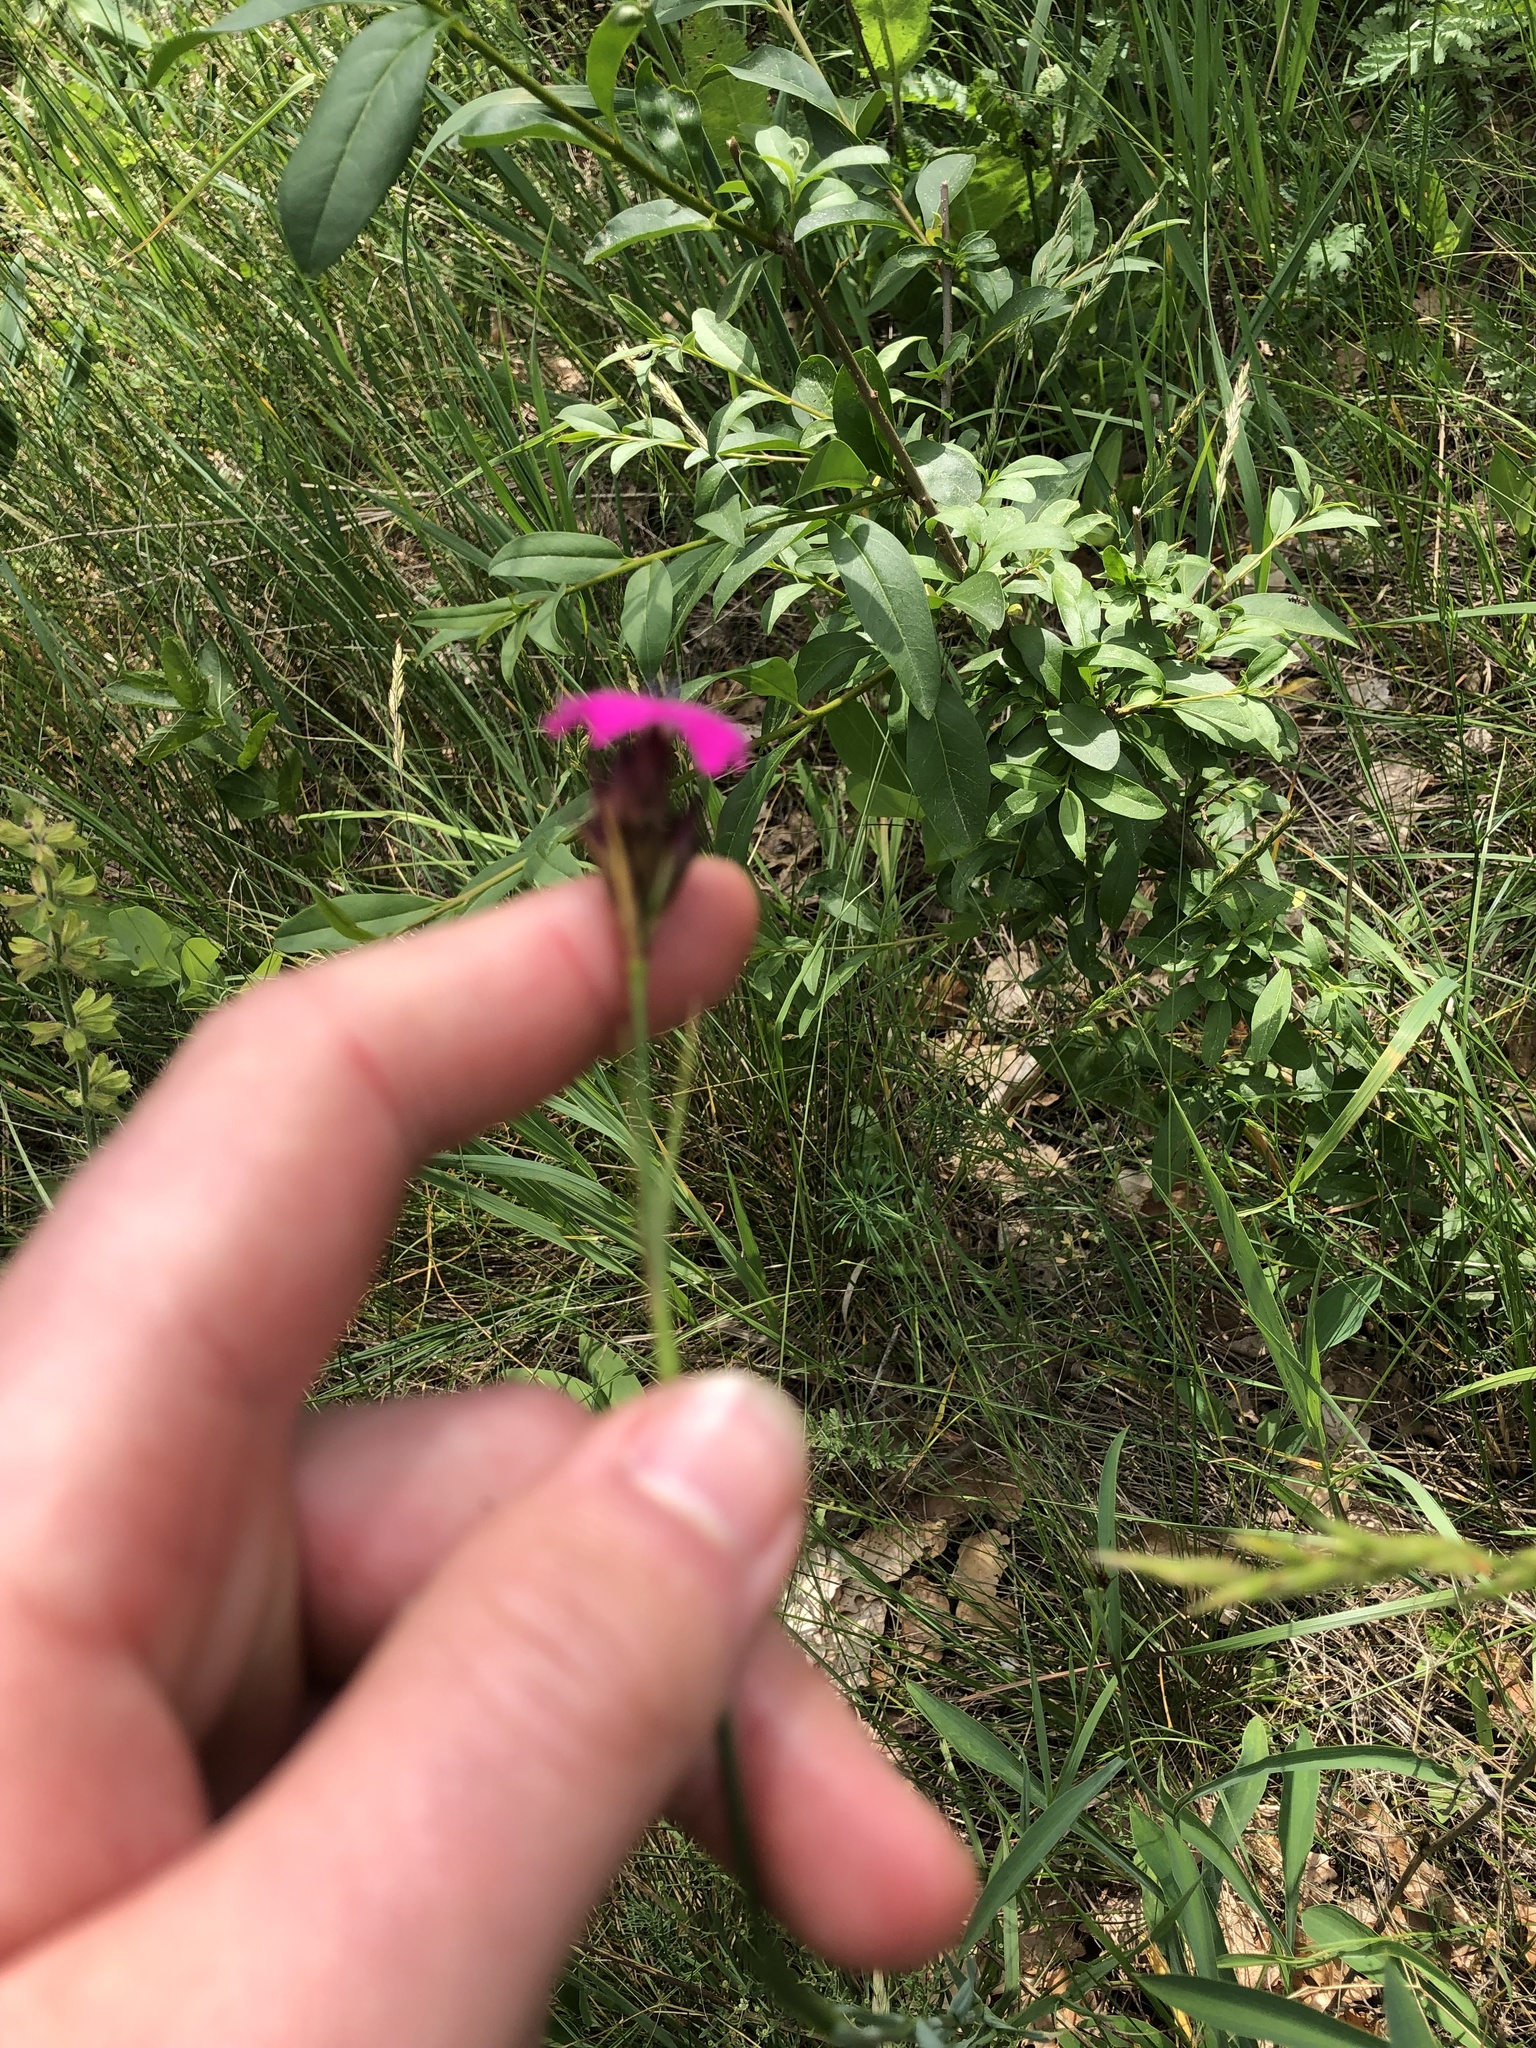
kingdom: Plantae
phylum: Tracheophyta
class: Magnoliopsida
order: Caryophyllales
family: Caryophyllaceae
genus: Dianthus
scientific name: Dianthus carthusianorum
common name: Carthusian pink
